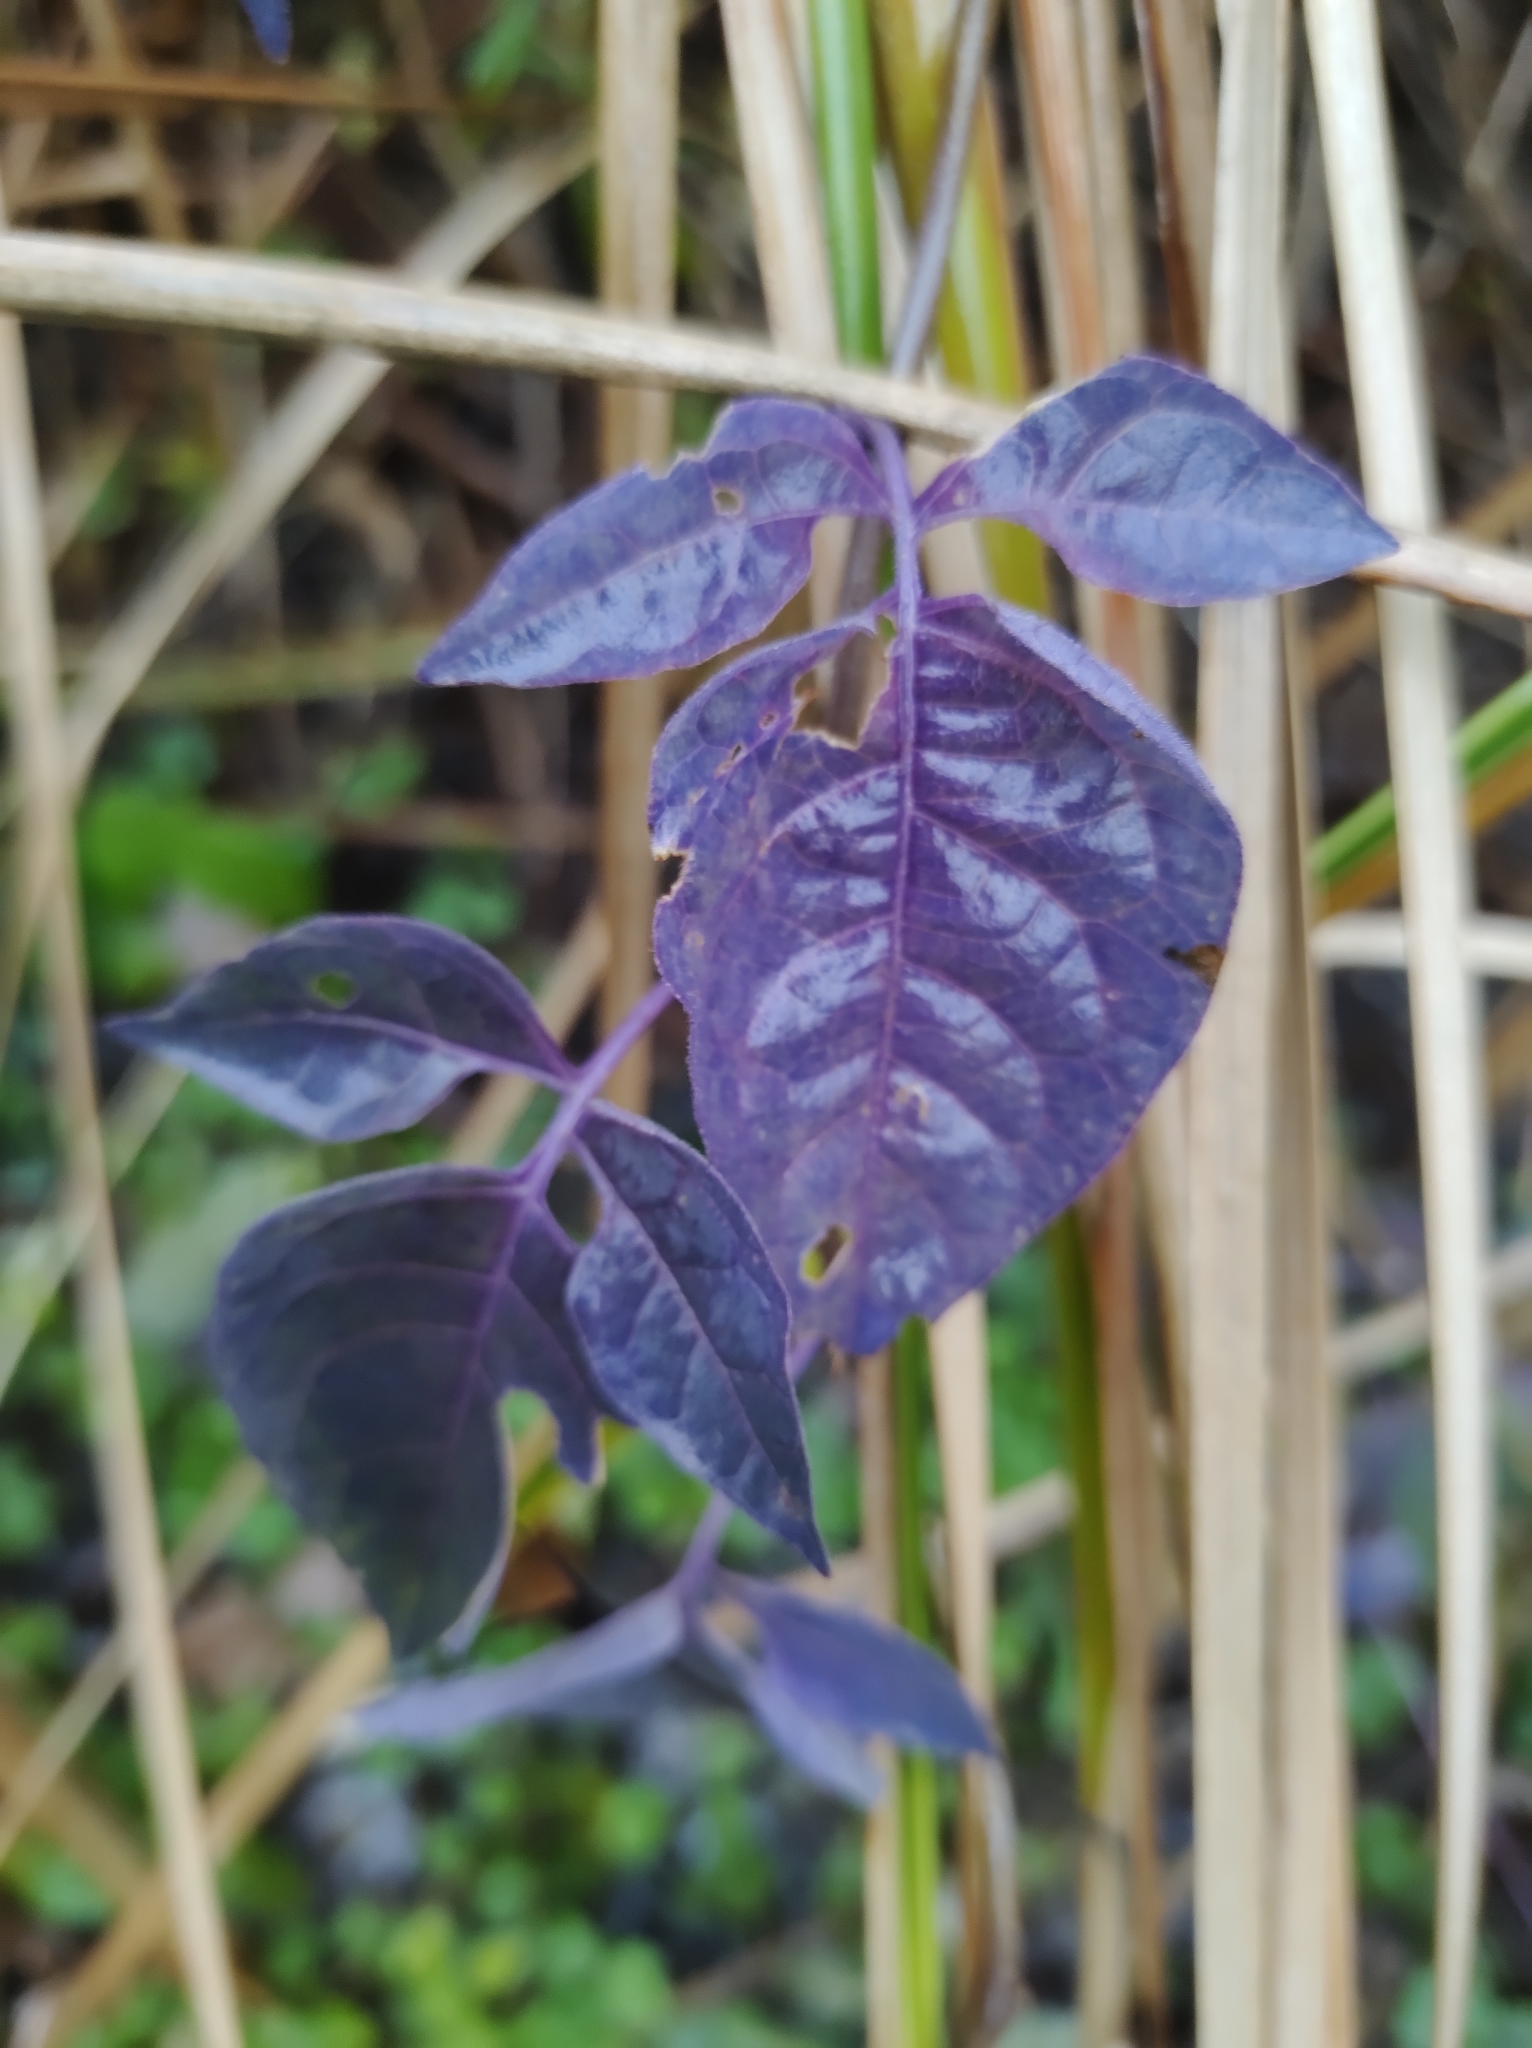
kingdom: Plantae
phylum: Tracheophyta
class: Magnoliopsida
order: Solanales
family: Solanaceae
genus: Solanum
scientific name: Solanum dulcamara
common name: Climbing nightshade
